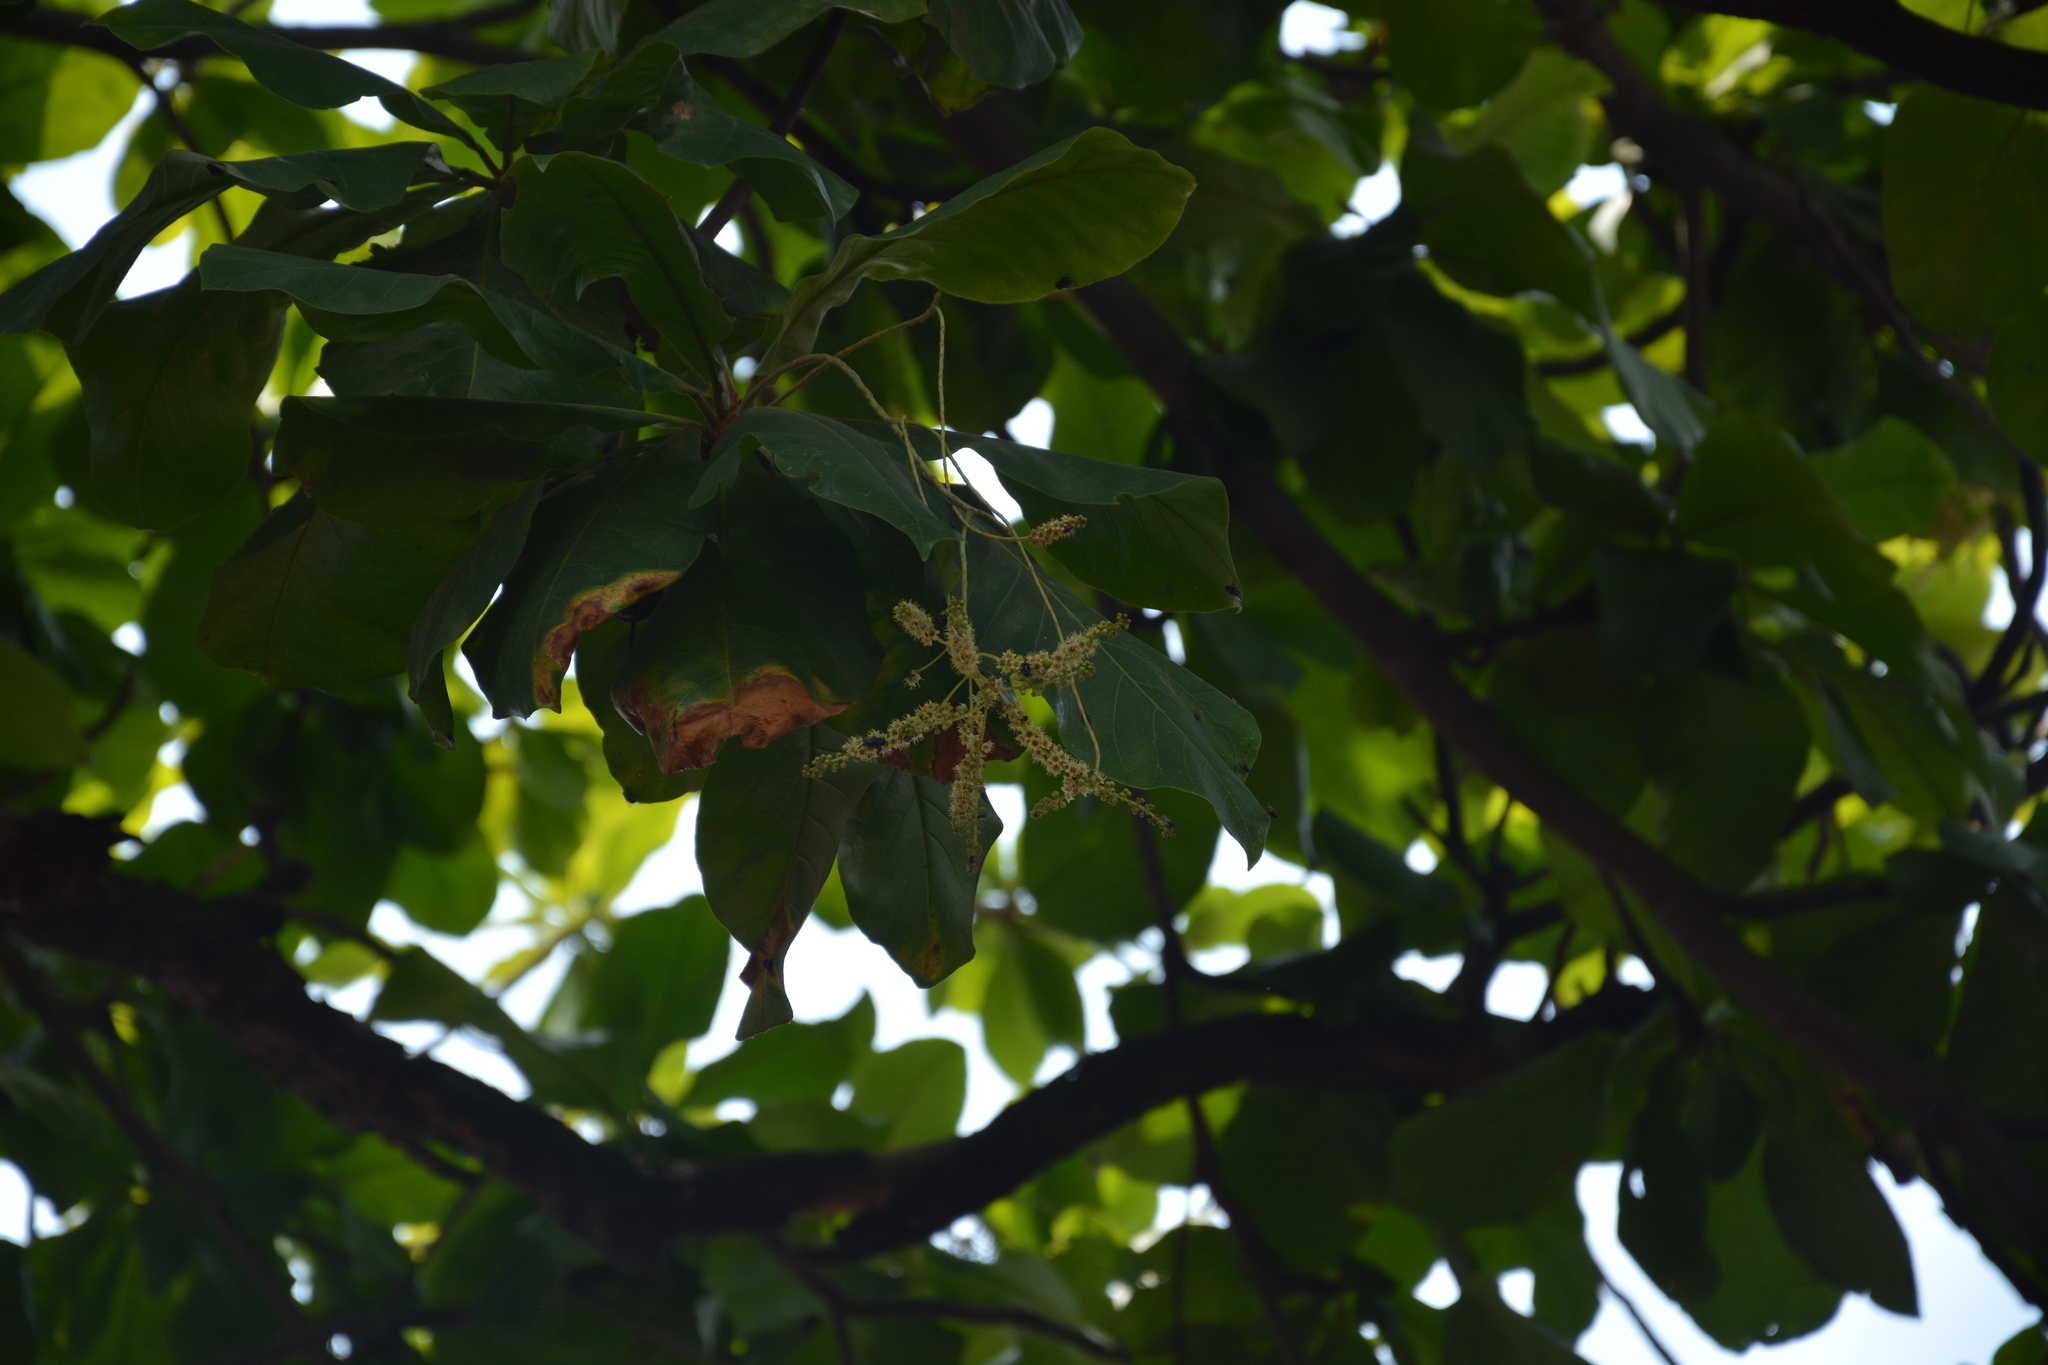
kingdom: Plantae
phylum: Tracheophyta
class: Magnoliopsida
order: Myrtales
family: Combretaceae
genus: Terminalia
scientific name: Terminalia catappa
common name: Tropical almond
